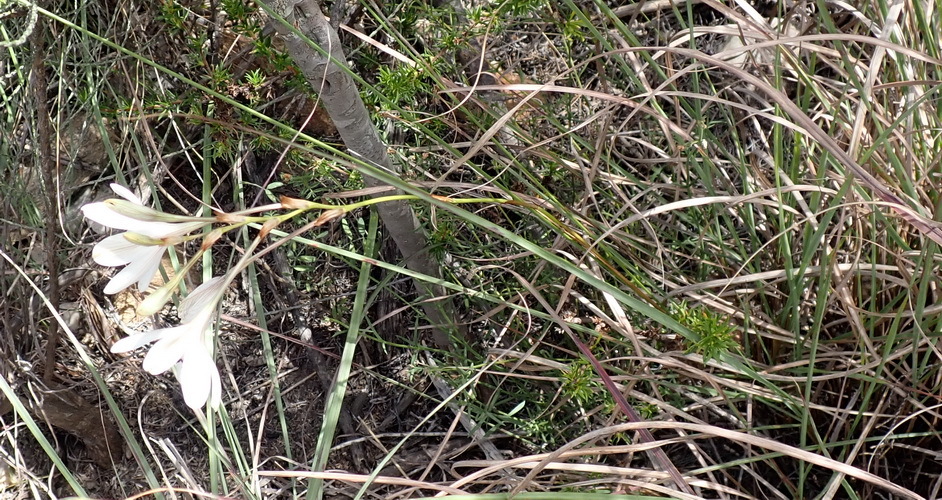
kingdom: Plantae
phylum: Tracheophyta
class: Liliopsida
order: Asparagales
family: Iridaceae
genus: Tritonia
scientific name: Tritonia bakeri
